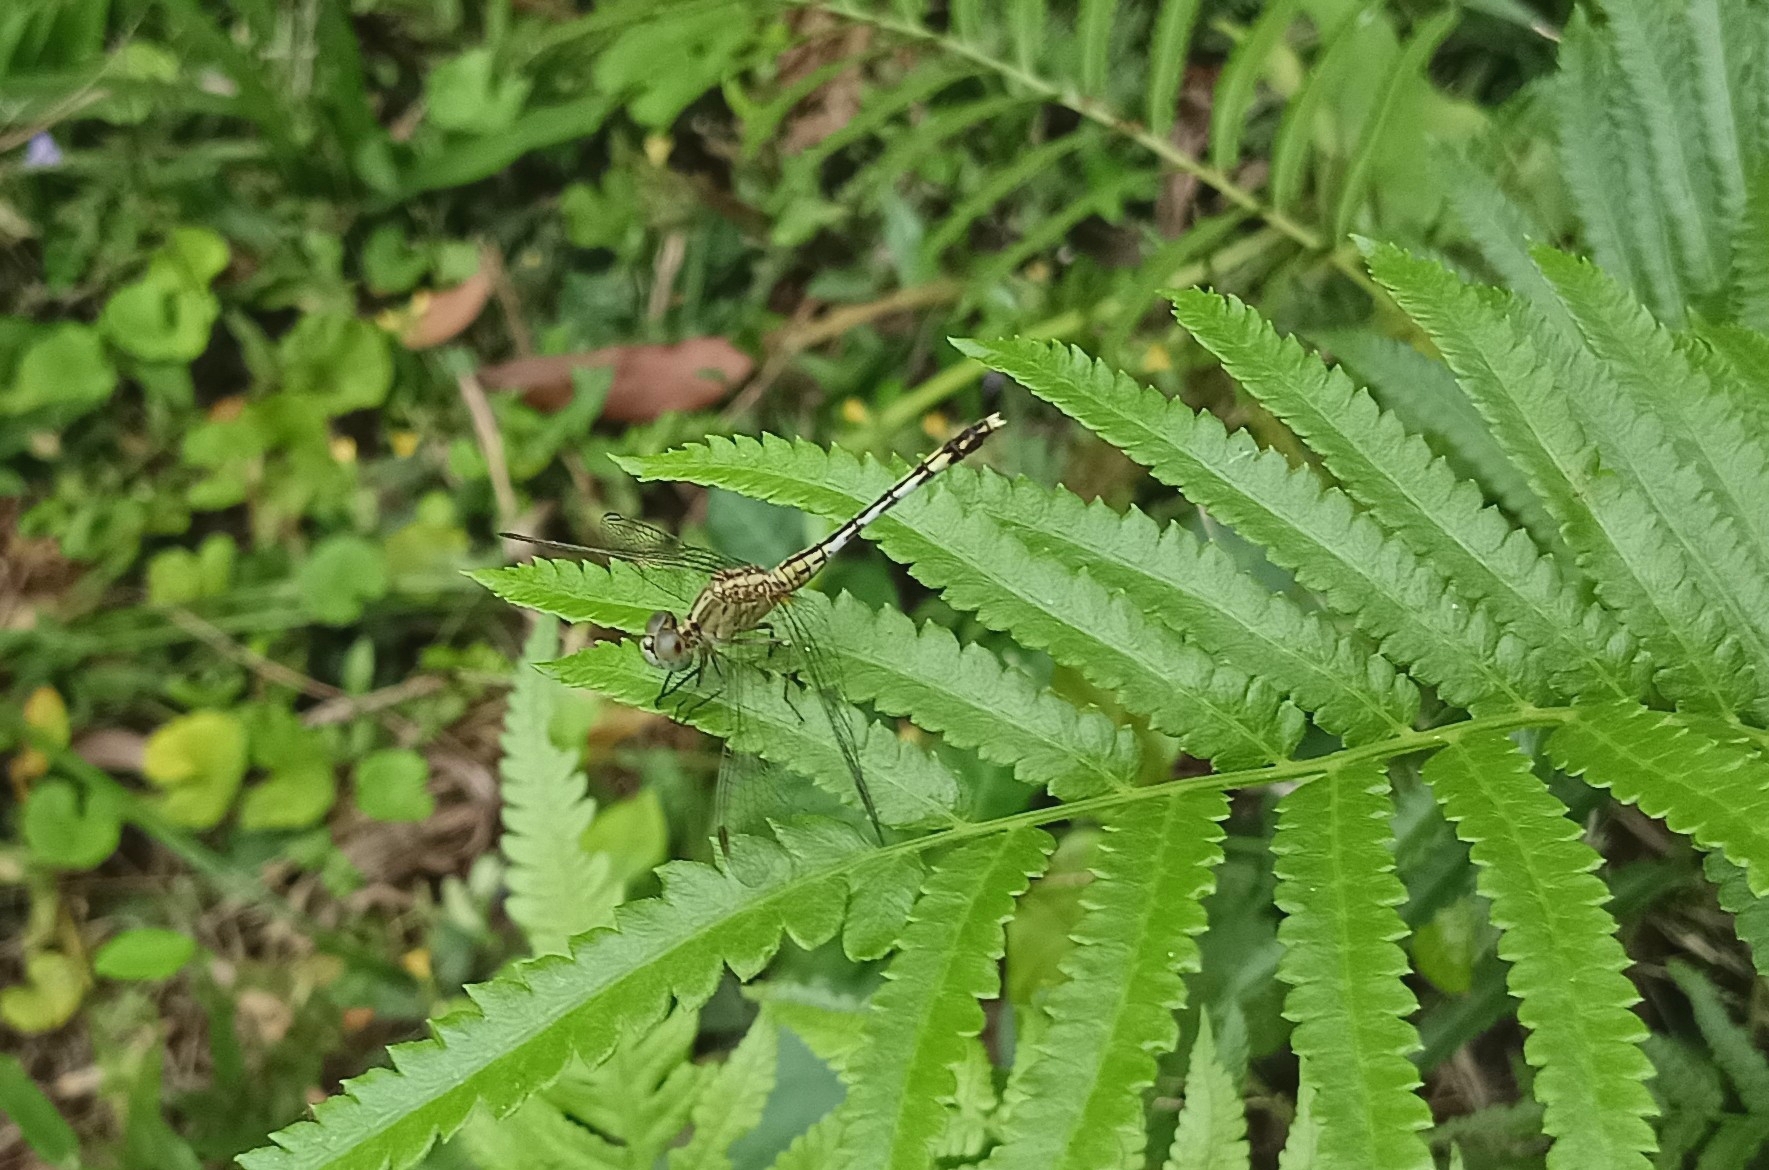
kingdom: Animalia
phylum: Arthropoda
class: Insecta
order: Odonata
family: Libellulidae
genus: Diplacodes
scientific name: Diplacodes trivialis
